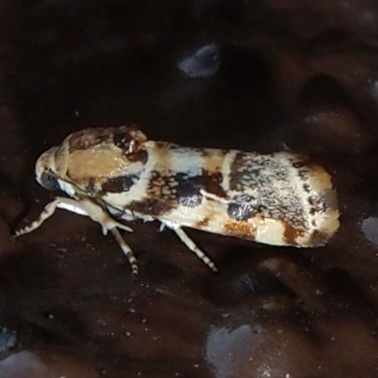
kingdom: Animalia
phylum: Arthropoda
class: Insecta
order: Lepidoptera
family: Noctuidae
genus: Spragueia
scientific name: Spragueia jaguaralis
